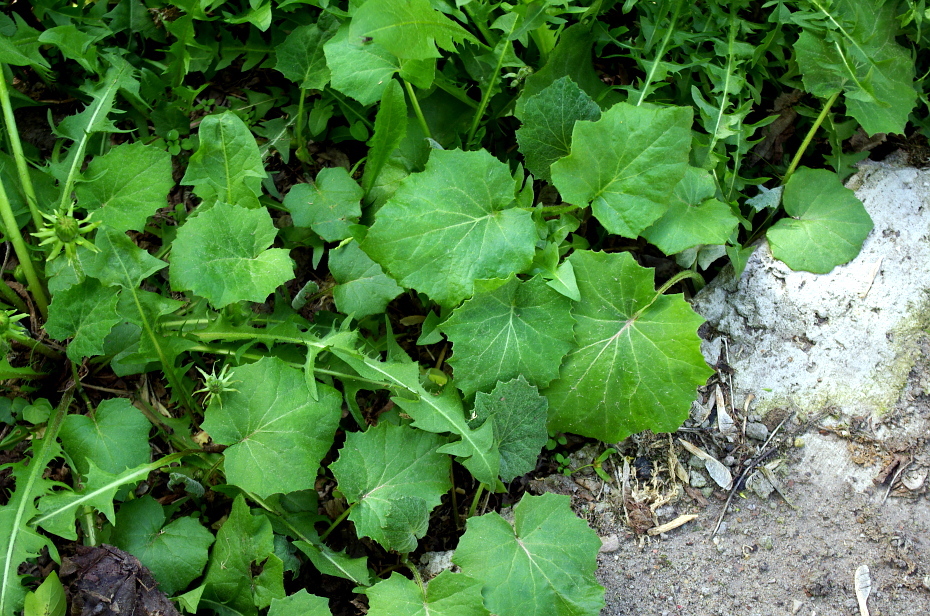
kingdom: Plantae
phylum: Tracheophyta
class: Magnoliopsida
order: Asterales
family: Asteraceae
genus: Tussilago
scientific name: Tussilago farfara
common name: Coltsfoot
